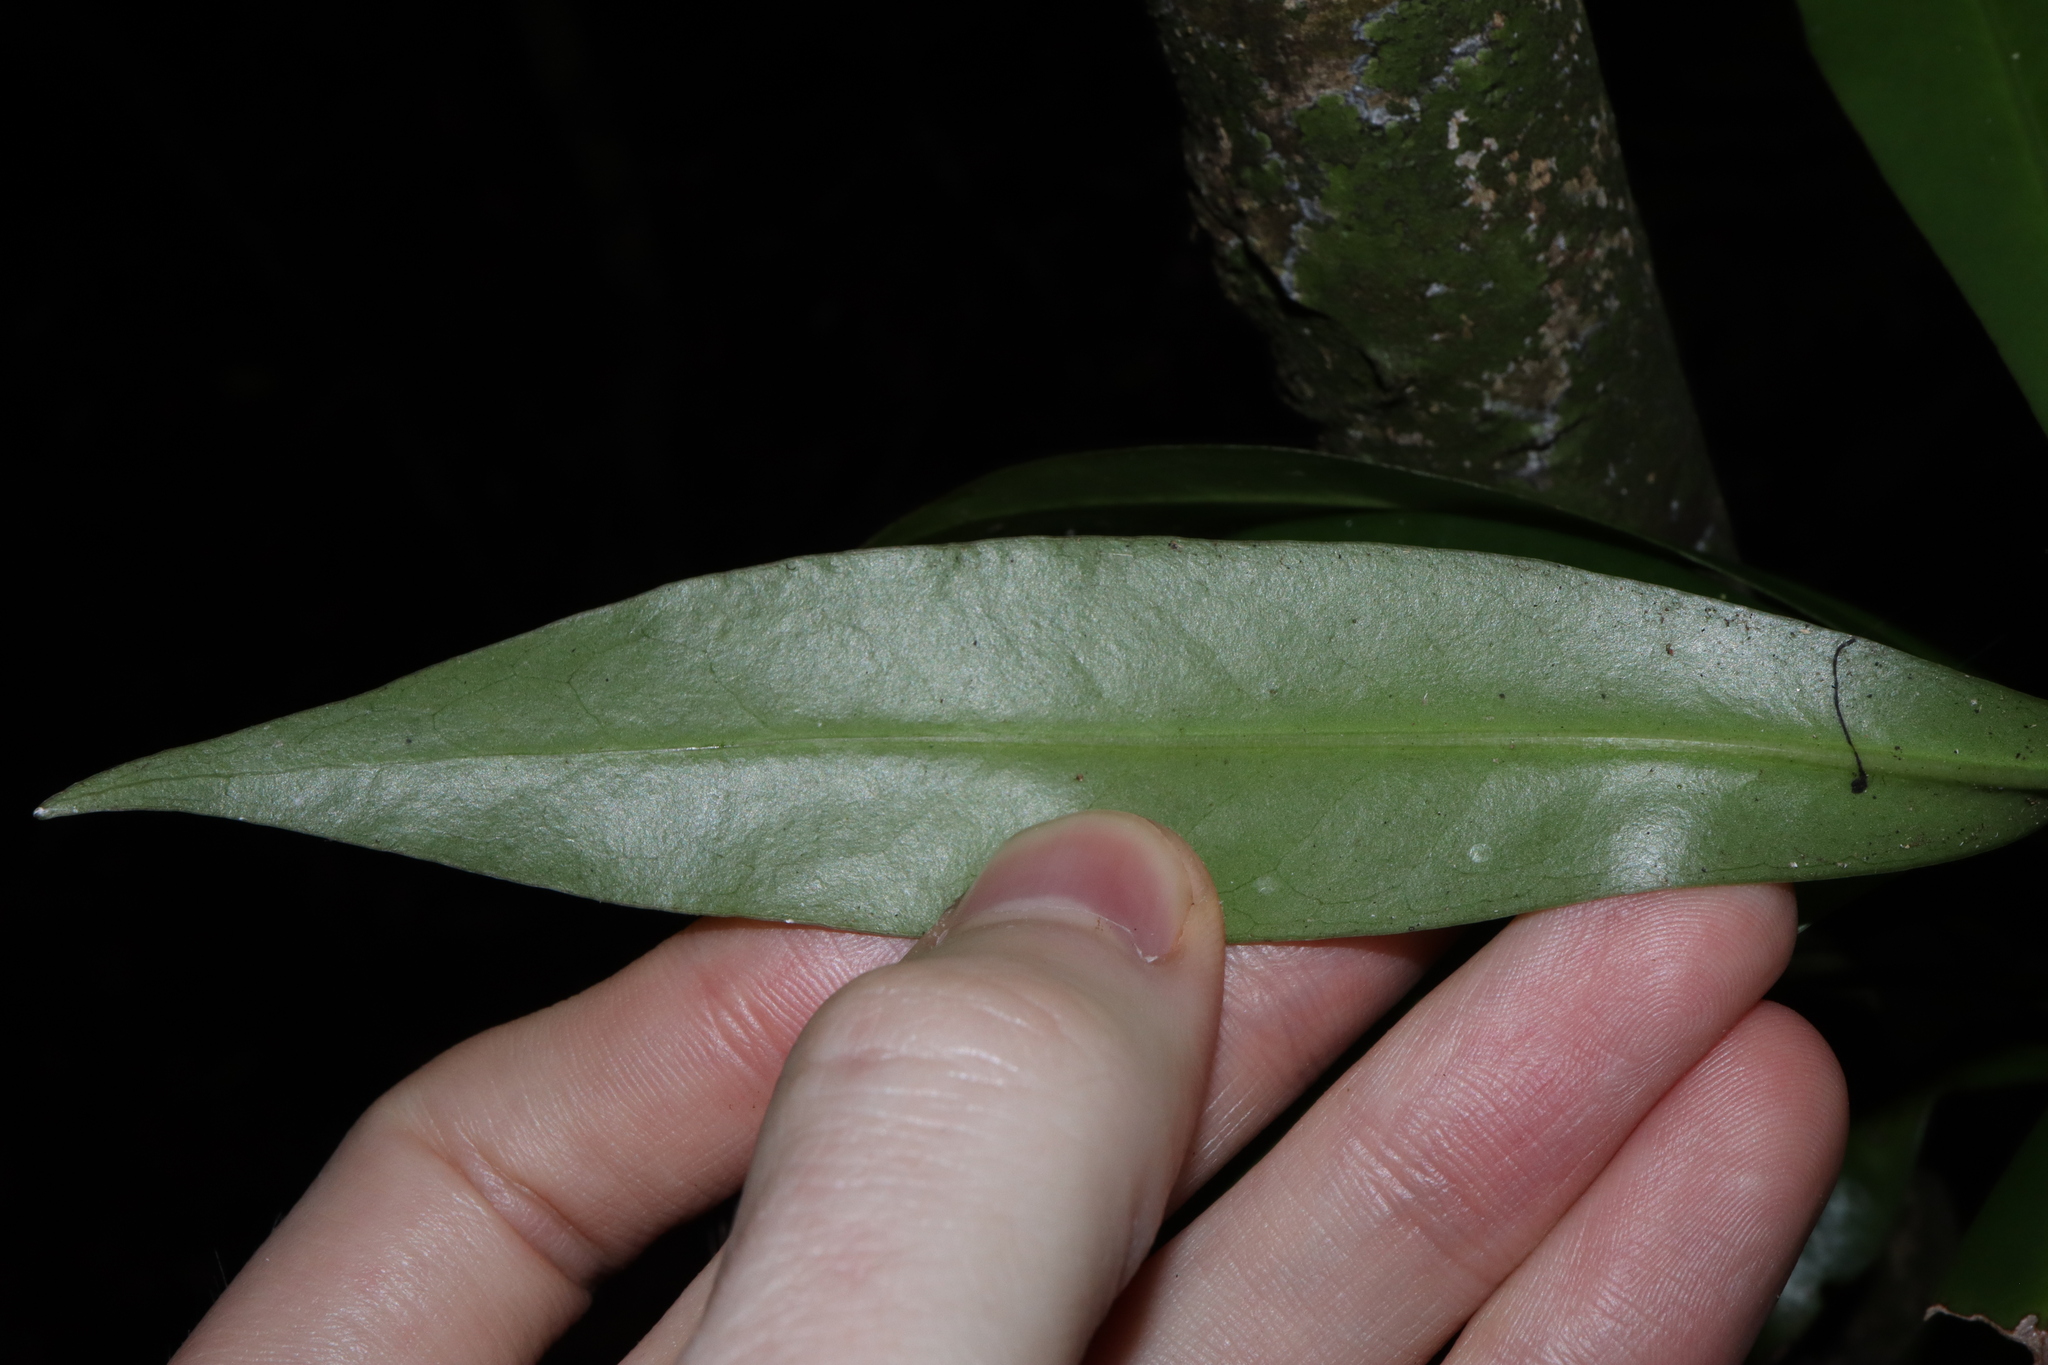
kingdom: Plantae
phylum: Tracheophyta
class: Magnoliopsida
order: Canellales
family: Winteraceae
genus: Drimys
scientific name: Drimys insipida
